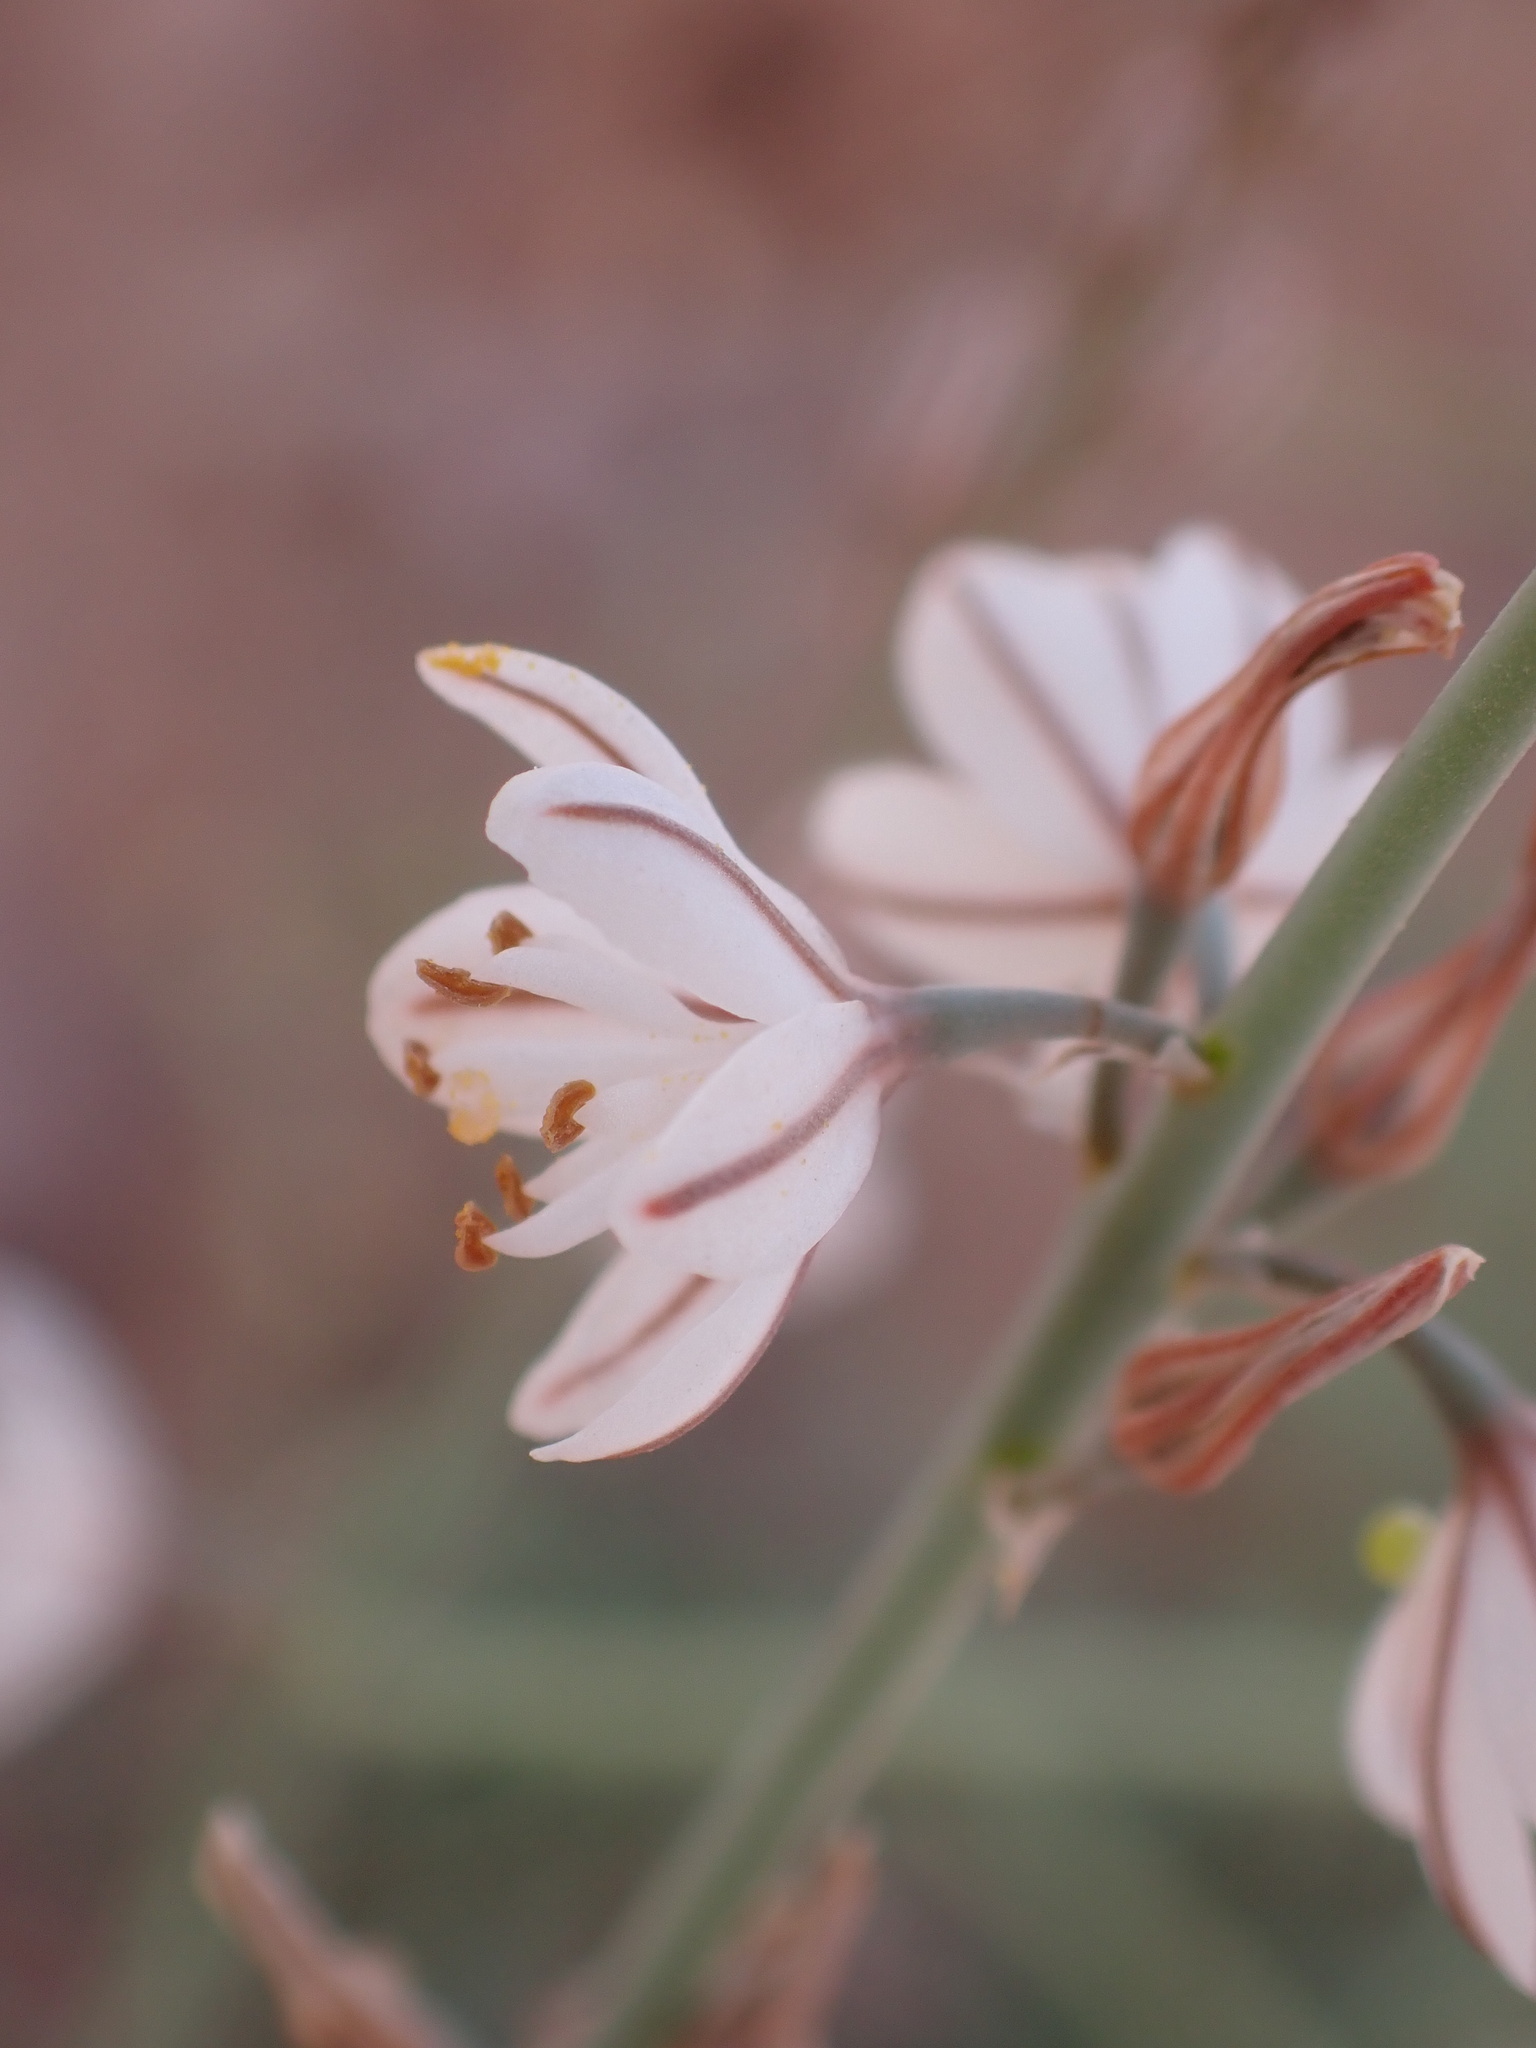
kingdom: Plantae
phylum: Tracheophyta
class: Liliopsida
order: Asparagales
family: Asphodelaceae
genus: Asphodelus
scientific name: Asphodelus tenuifolius
